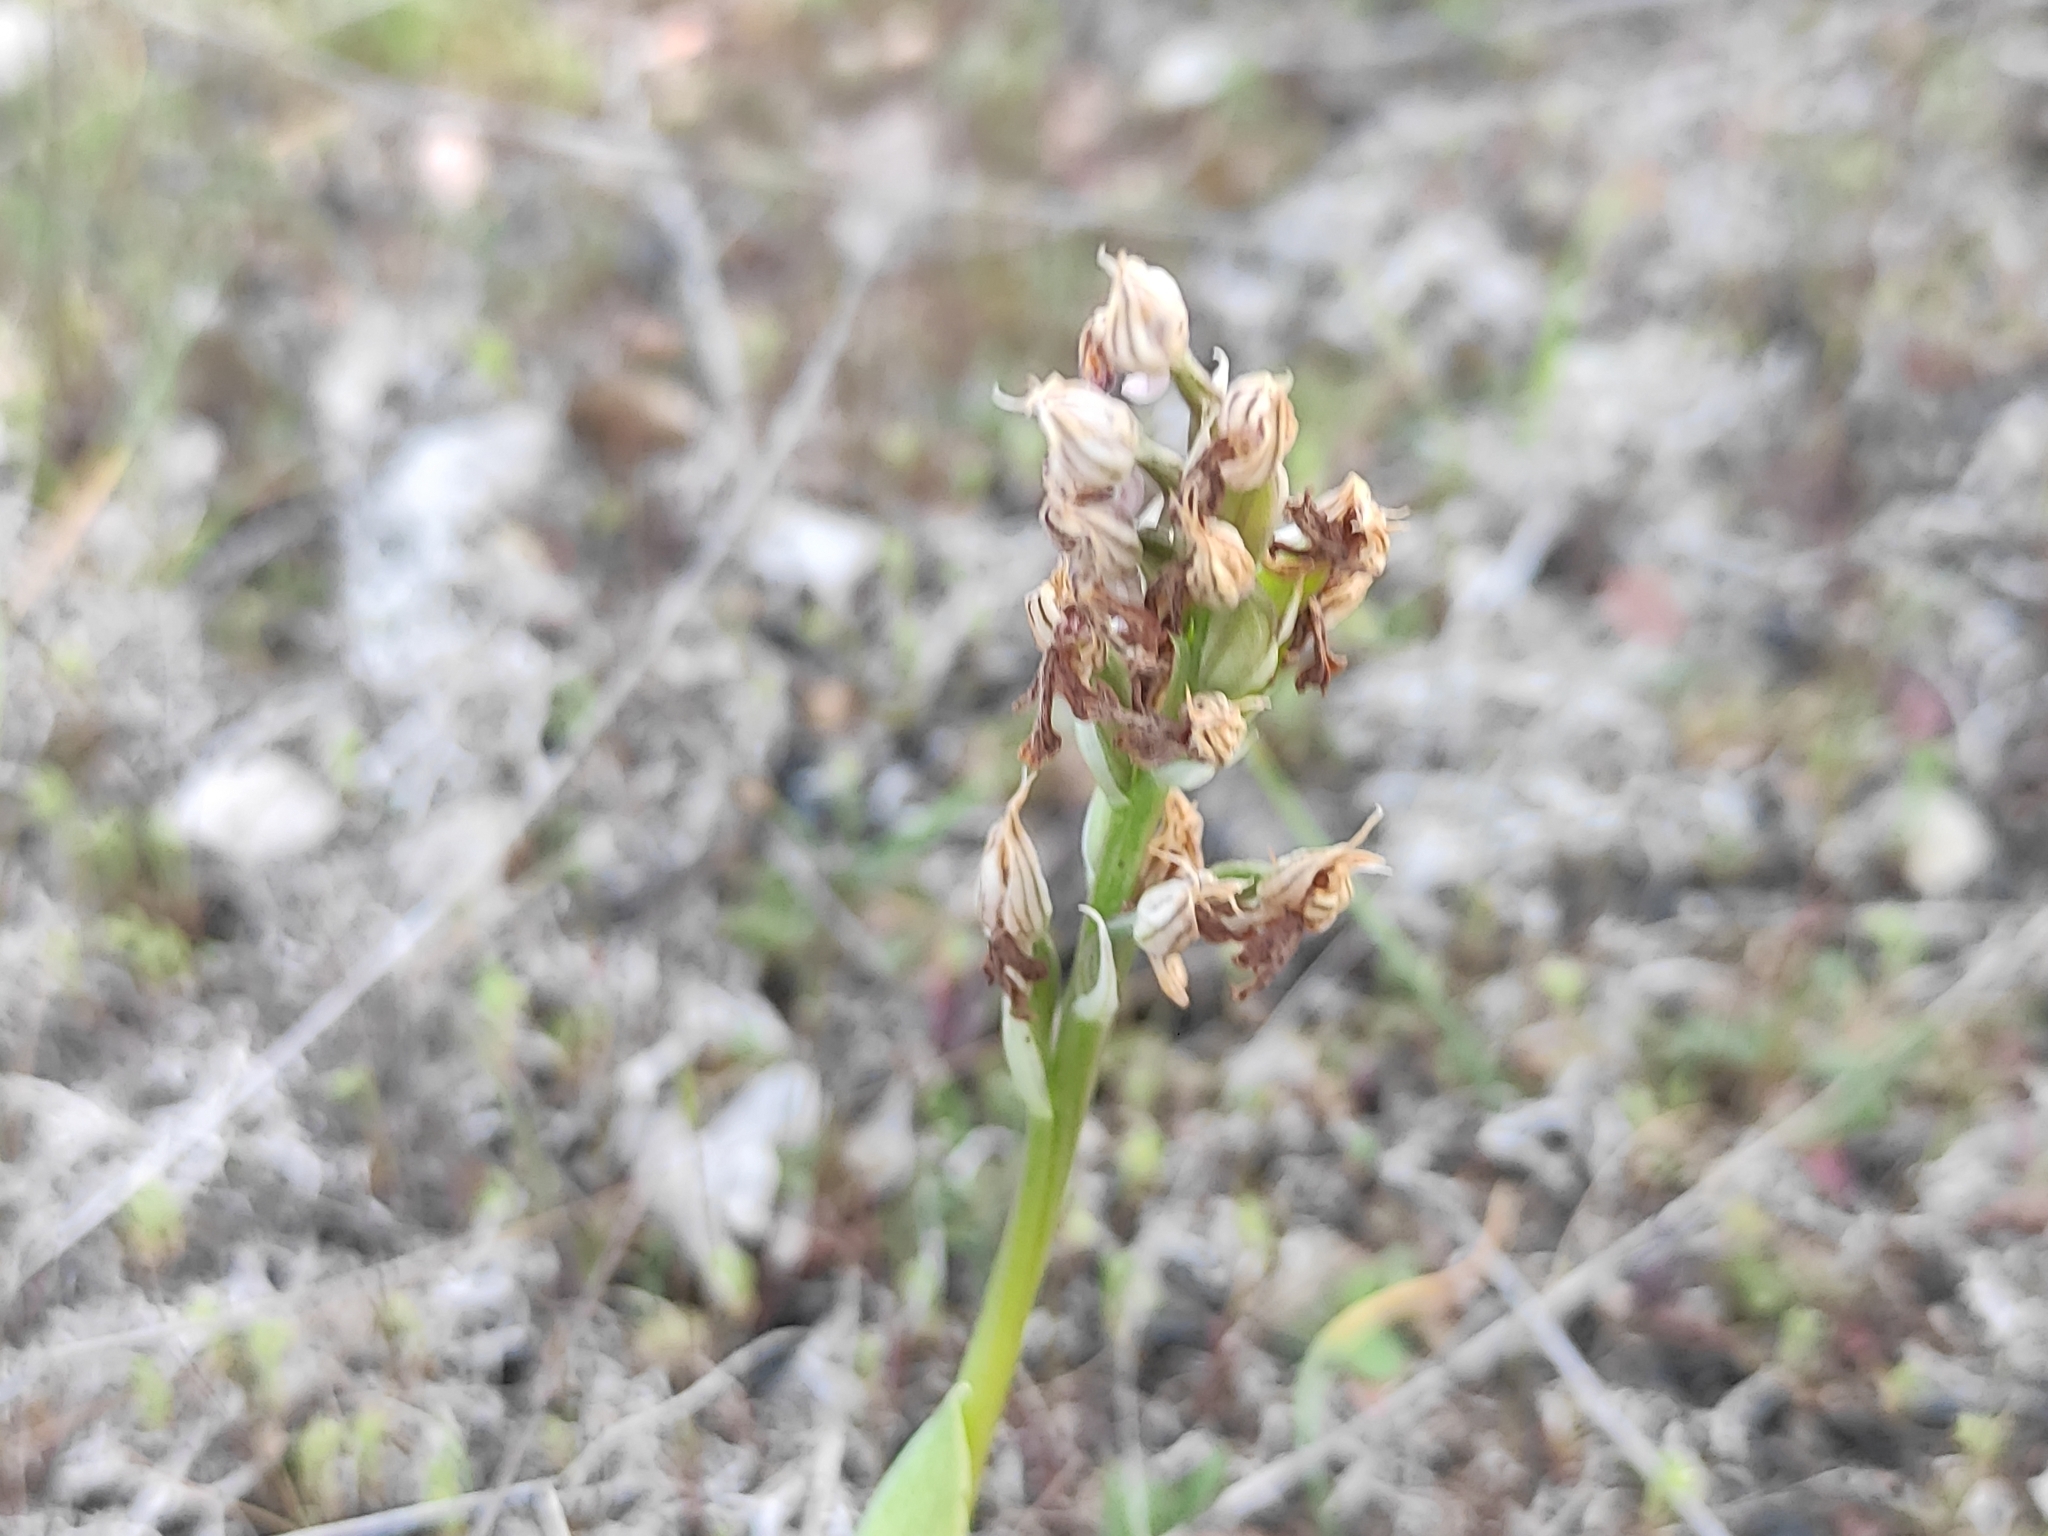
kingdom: Plantae
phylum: Tracheophyta
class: Liliopsida
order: Asparagales
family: Orchidaceae
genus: Neotinea
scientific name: Neotinea lactea
